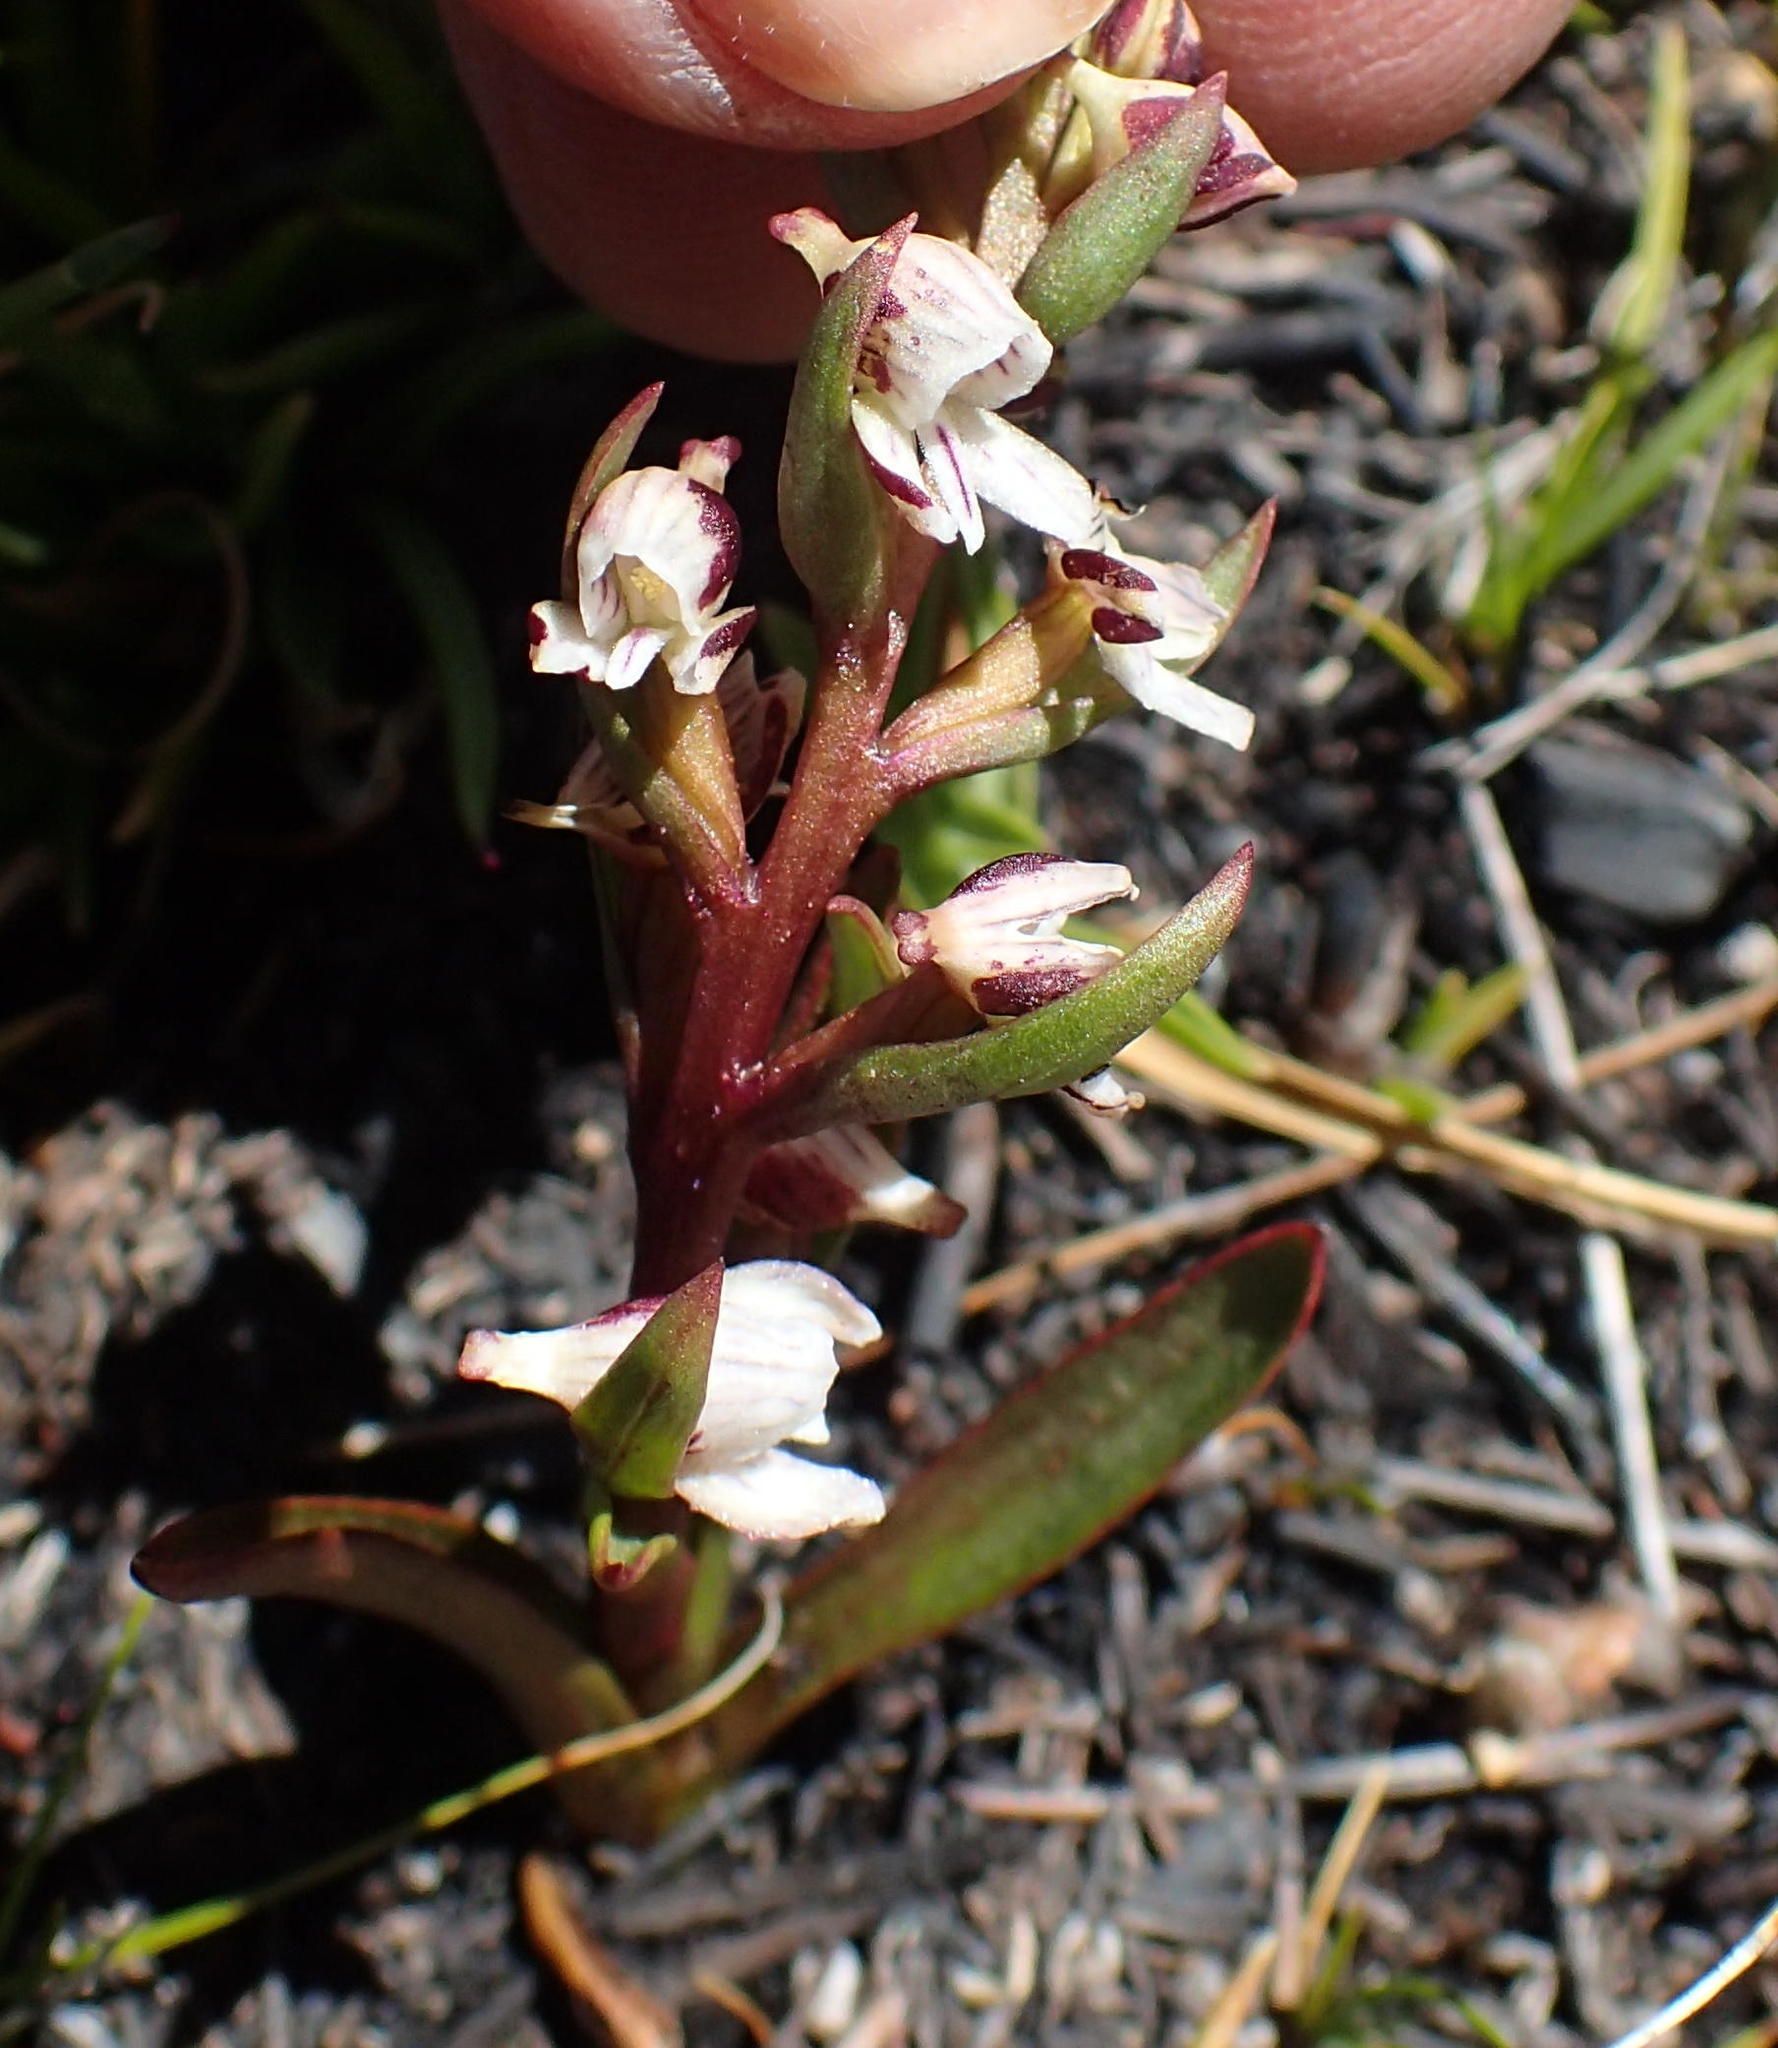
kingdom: Plantae
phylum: Tracheophyta
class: Liliopsida
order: Asparagales
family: Orchidaceae
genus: Disa
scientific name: Disa ocellata
